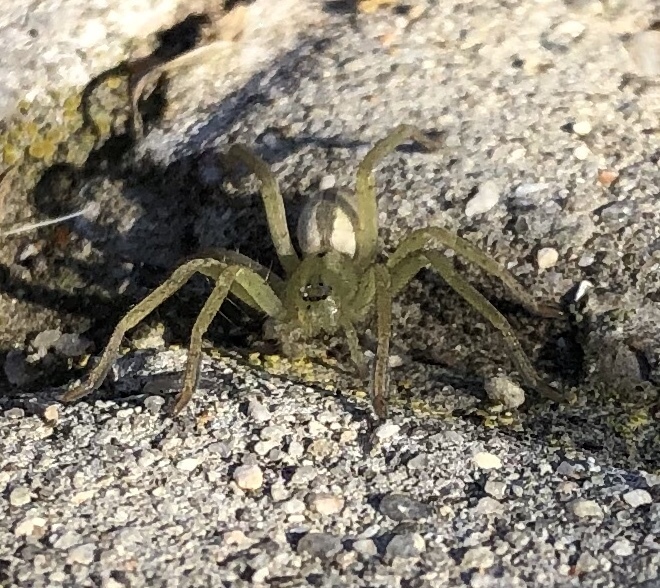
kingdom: Animalia
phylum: Arthropoda
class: Arachnida
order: Araneae
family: Sparassidae
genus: Micrommata
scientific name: Micrommata ligurina
